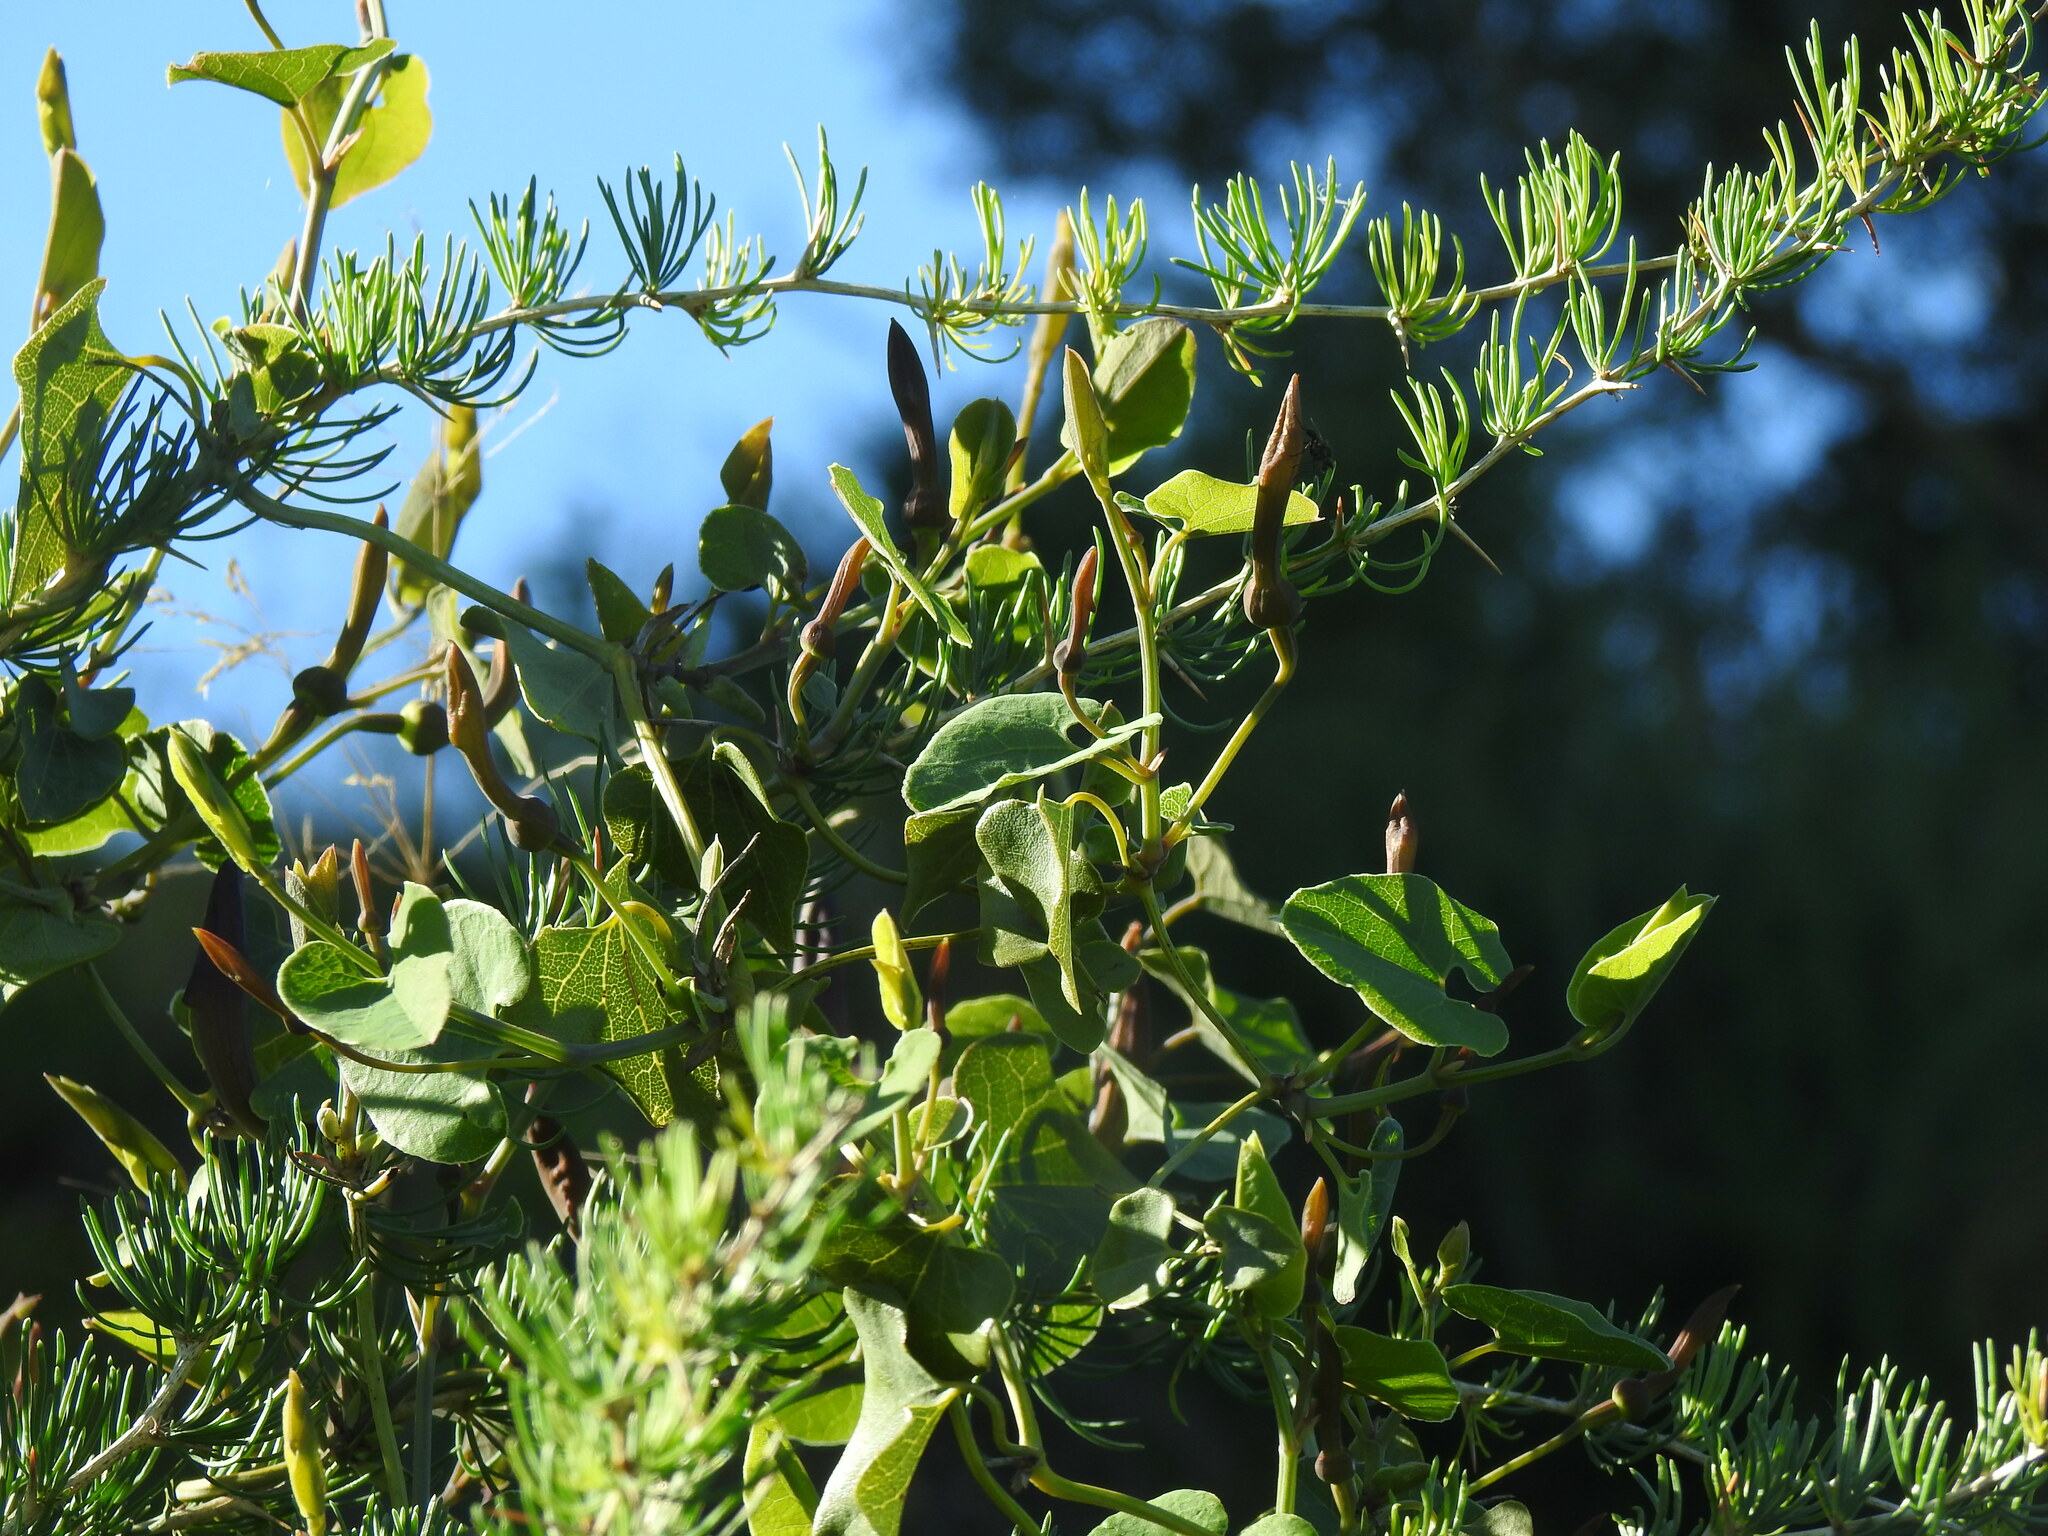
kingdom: Plantae
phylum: Tracheophyta
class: Magnoliopsida
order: Piperales
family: Aristolochiaceae
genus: Aristolochia
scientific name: Aristolochia baetica
